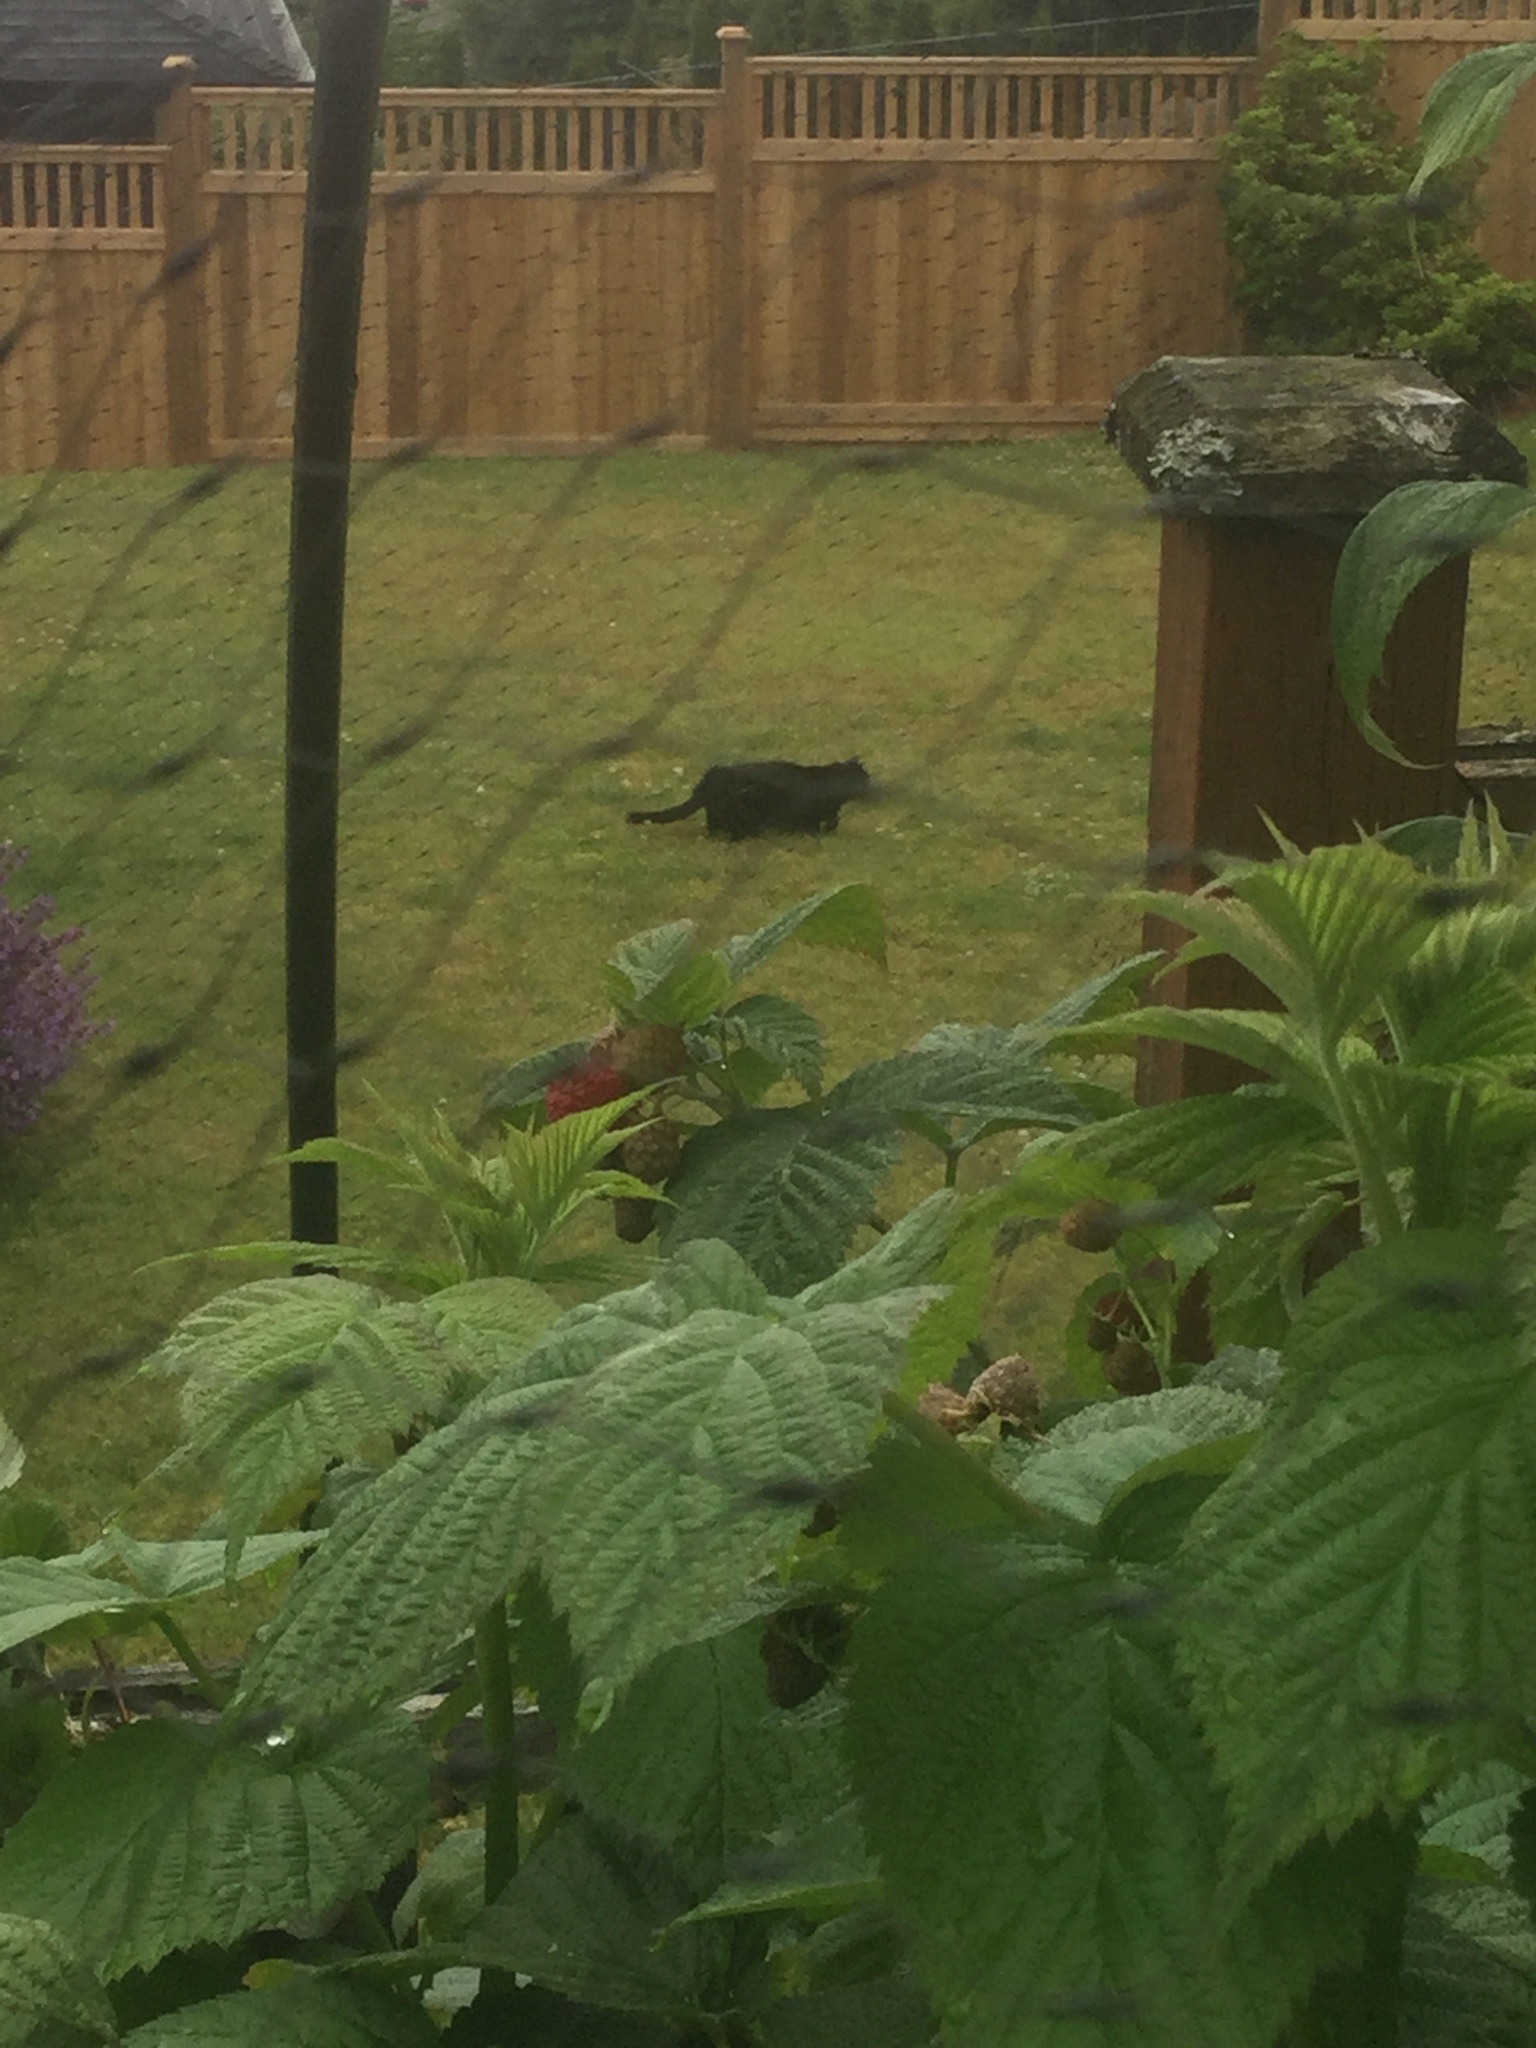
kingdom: Animalia
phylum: Chordata
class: Mammalia
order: Carnivora
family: Felidae
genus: Felis
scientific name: Felis catus
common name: Domestic cat
